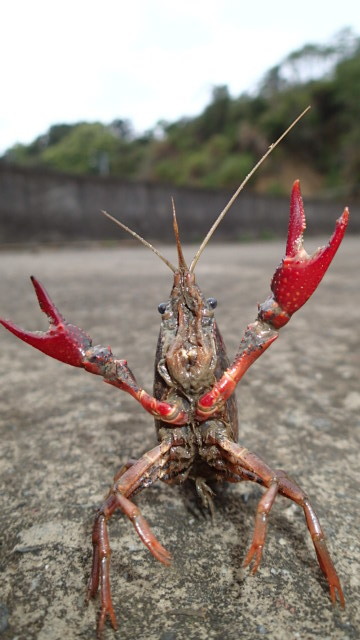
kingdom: Animalia
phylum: Arthropoda
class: Malacostraca
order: Decapoda
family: Cambaridae
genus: Procambarus
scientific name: Procambarus clarkii
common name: Red swamp crayfish
